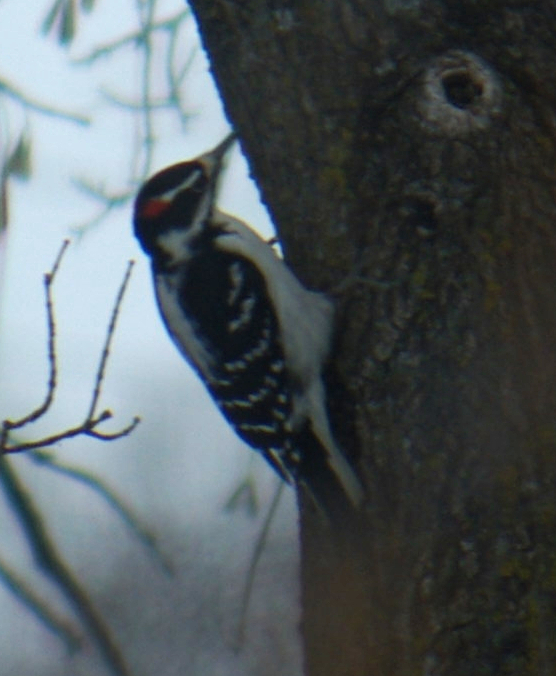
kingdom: Animalia
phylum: Chordata
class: Aves
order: Piciformes
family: Picidae
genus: Leuconotopicus
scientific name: Leuconotopicus villosus
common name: Hairy woodpecker
